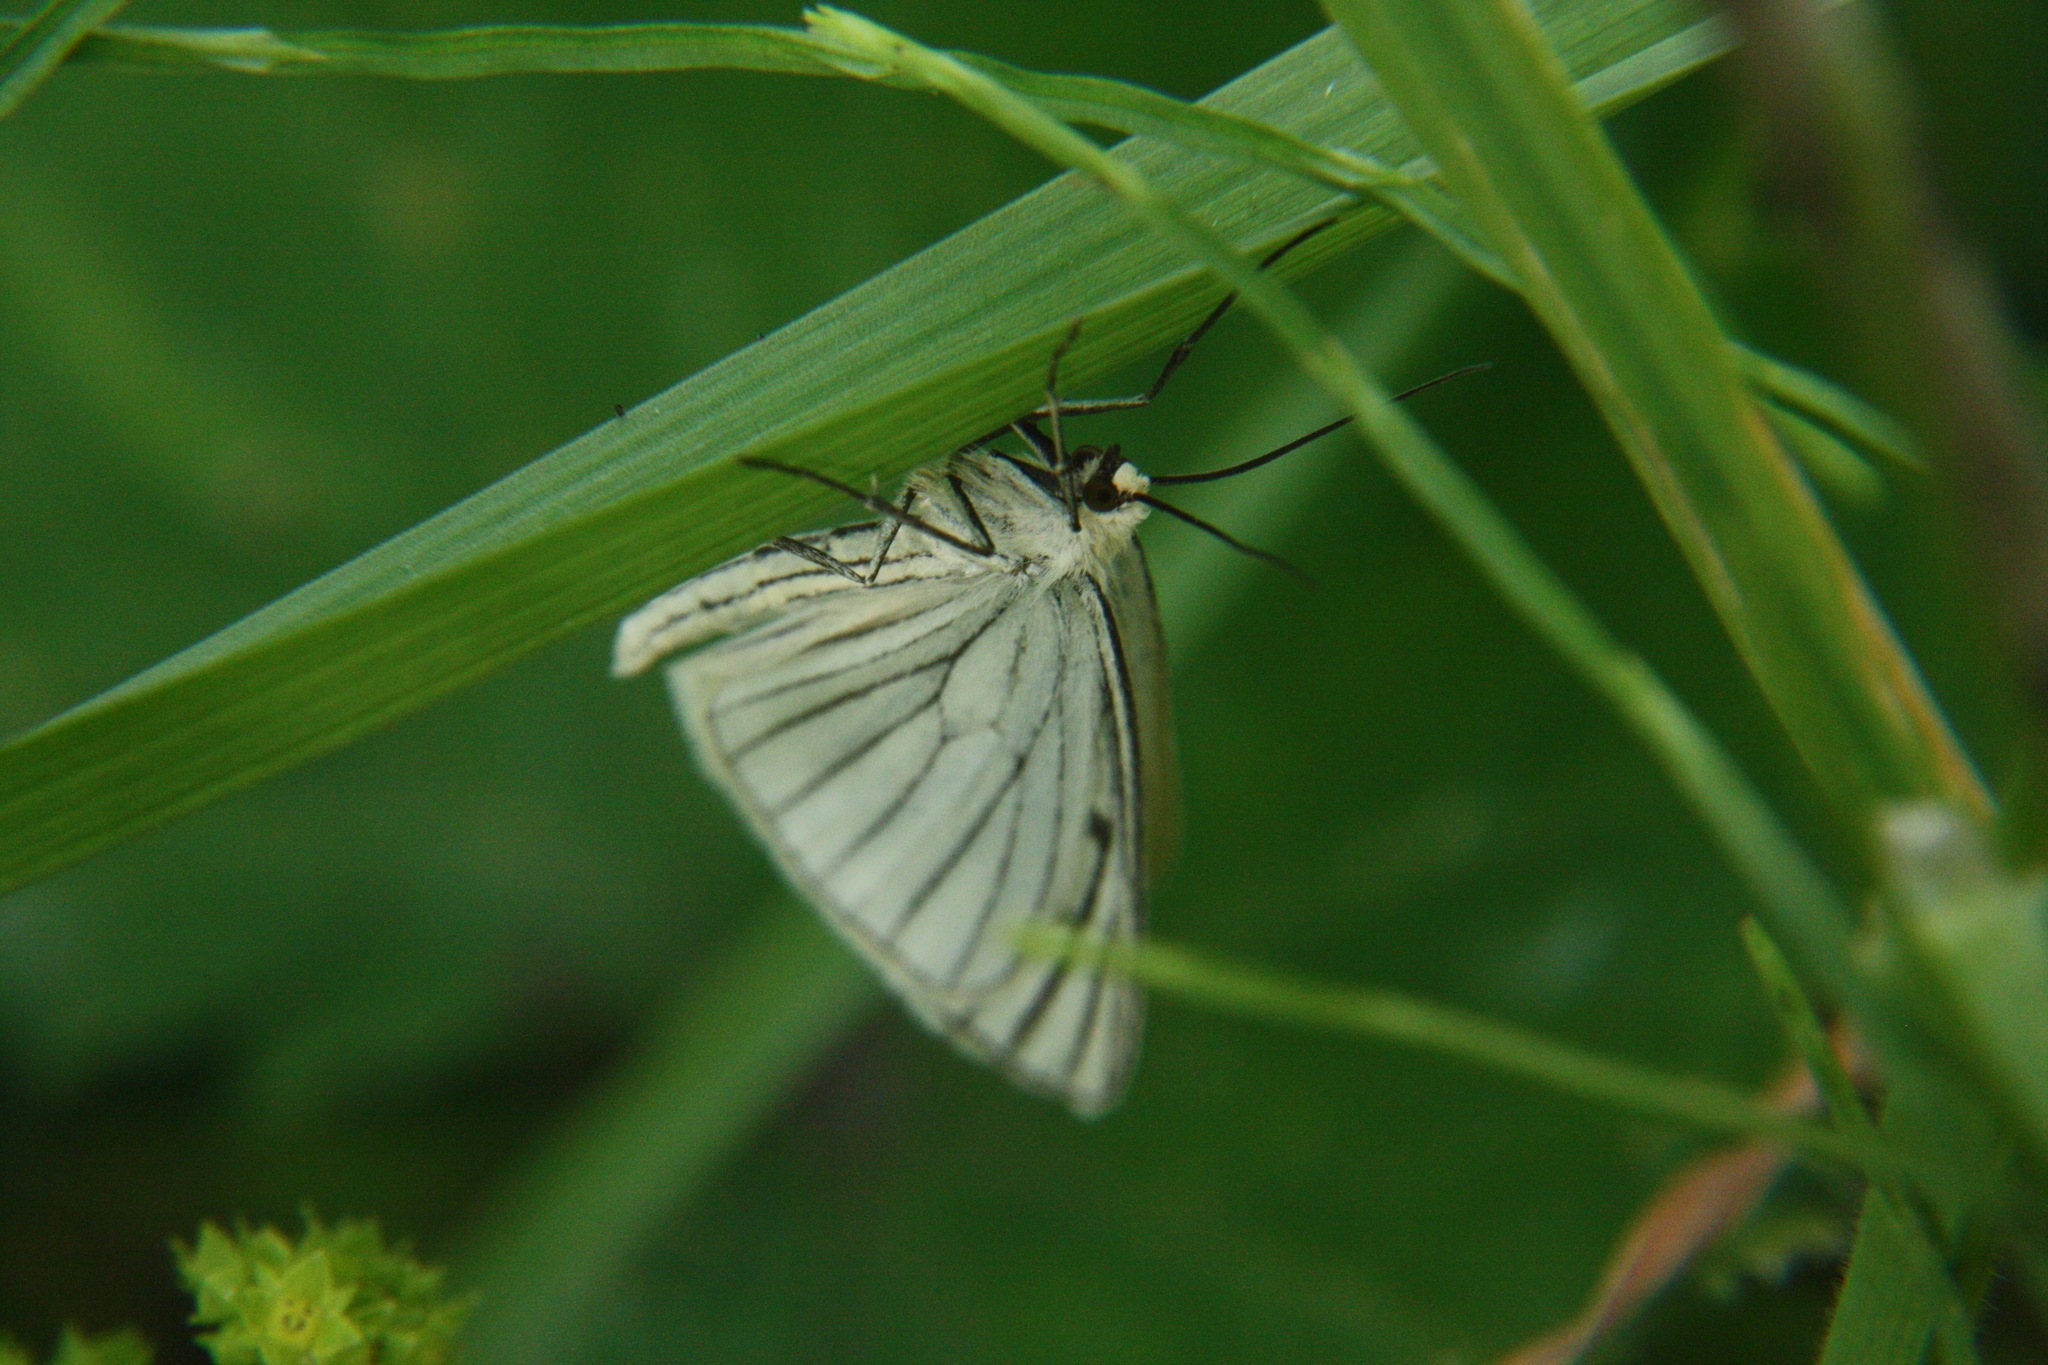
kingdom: Animalia
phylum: Arthropoda
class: Insecta
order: Lepidoptera
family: Geometridae
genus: Siona
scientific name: Siona lineata
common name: Black-veined moth
